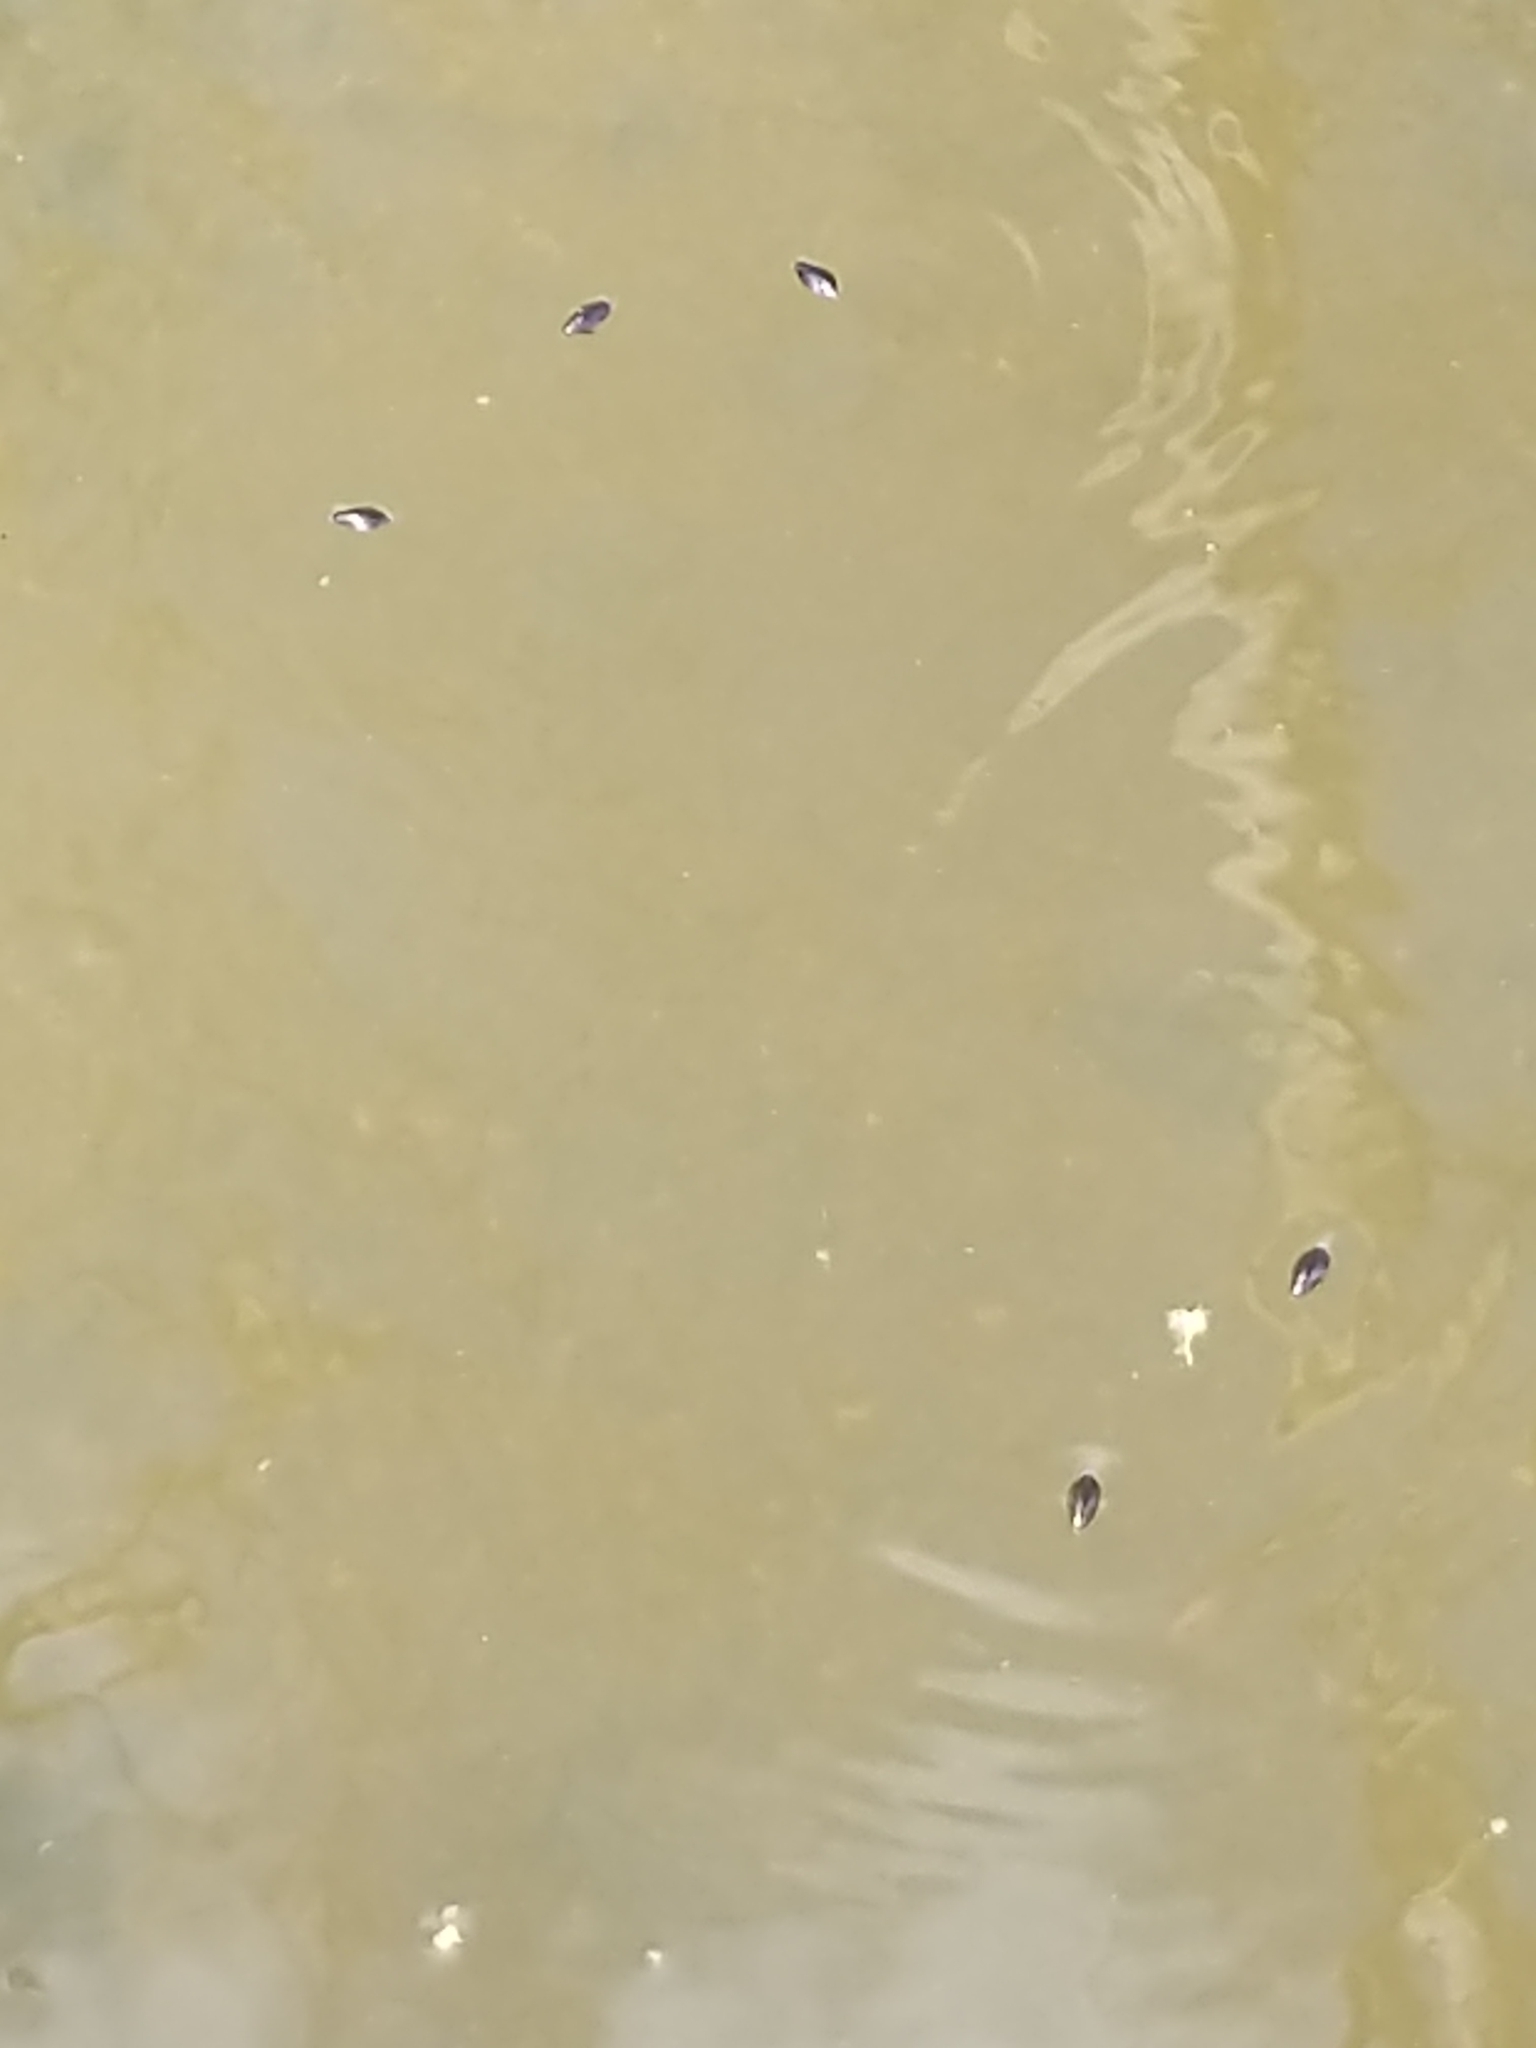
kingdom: Animalia
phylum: Arthropoda
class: Insecta
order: Coleoptera
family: Gyrinidae
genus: Dineutus
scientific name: Dineutus
